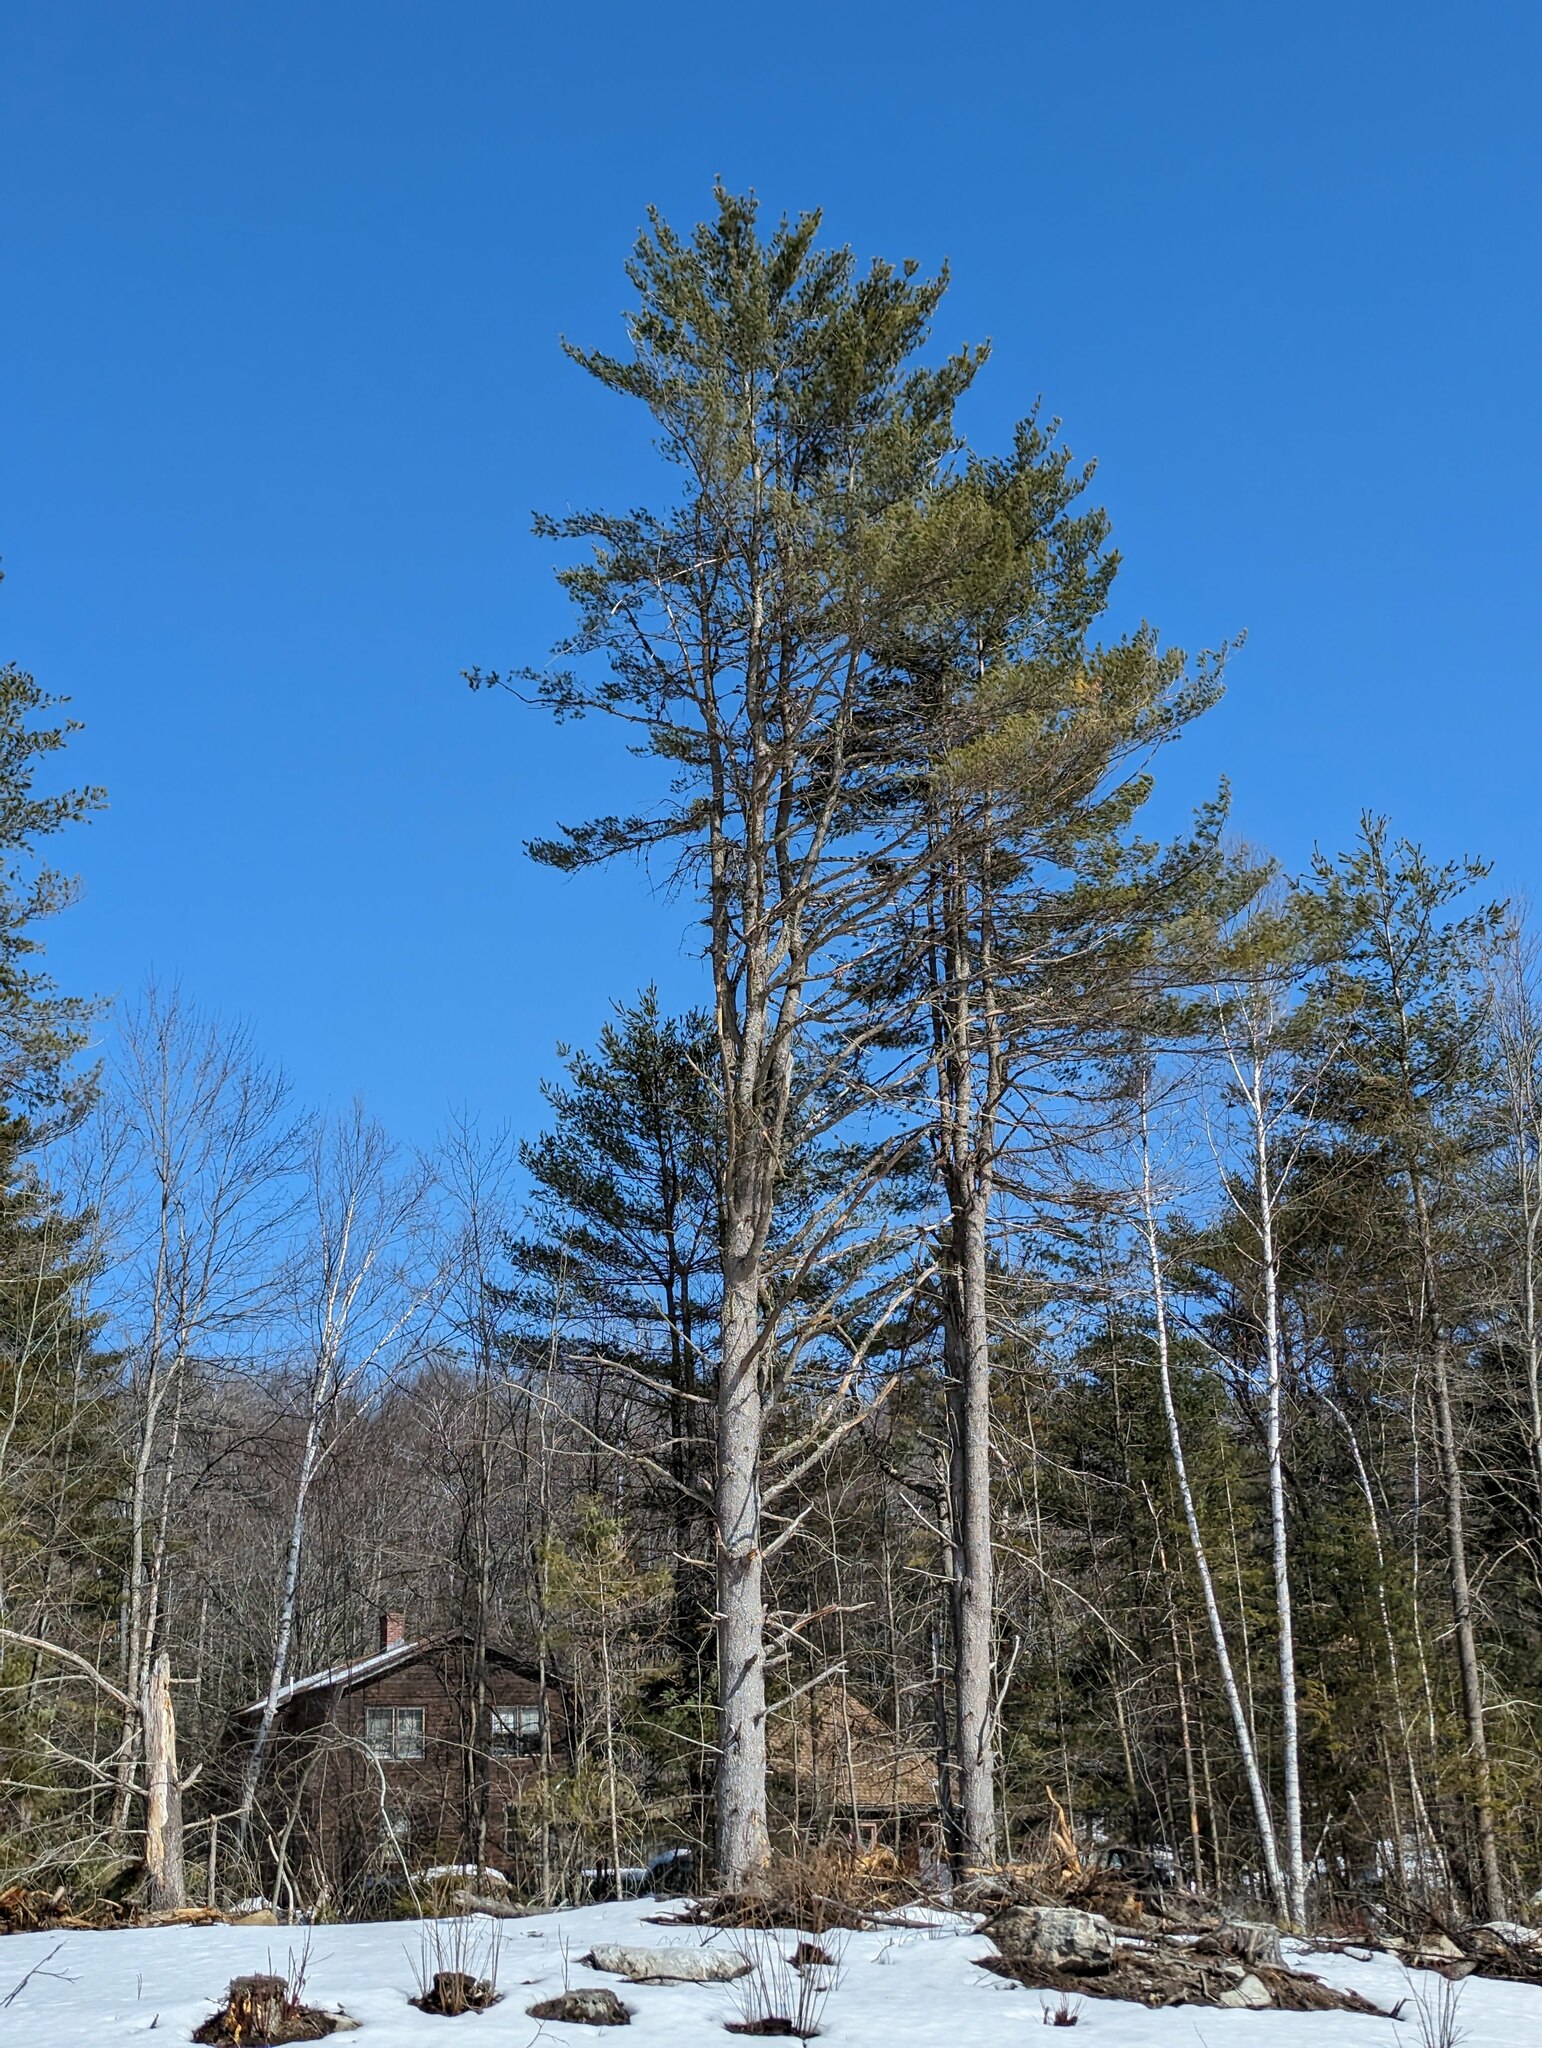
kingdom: Plantae
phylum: Tracheophyta
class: Pinopsida
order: Pinales
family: Pinaceae
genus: Pinus
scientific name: Pinus strobus
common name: Weymouth pine
